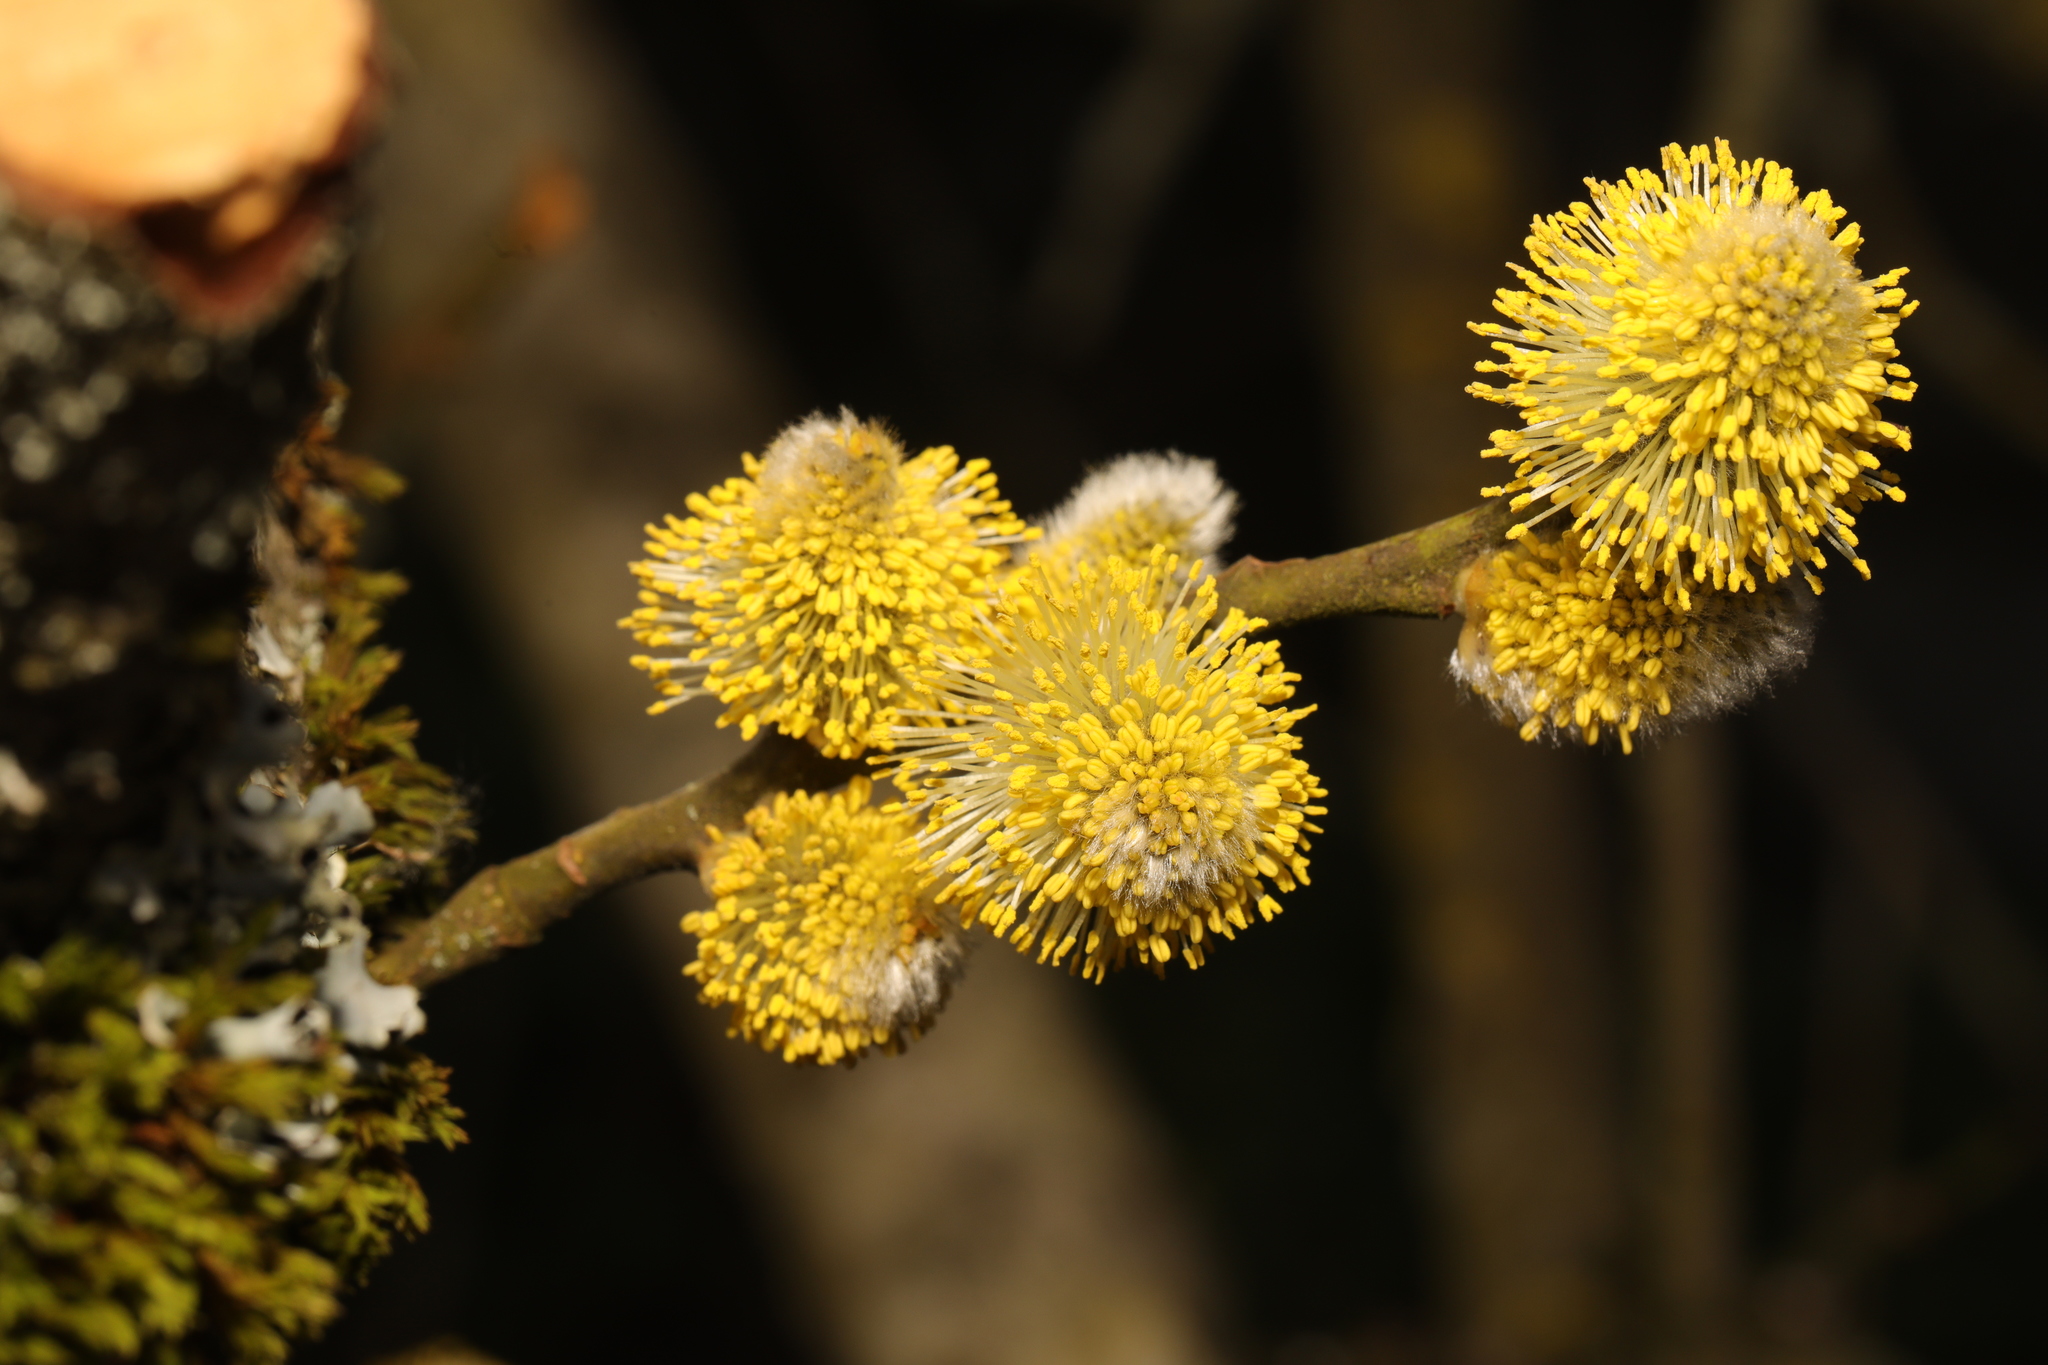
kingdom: Plantae
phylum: Tracheophyta
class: Magnoliopsida
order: Malpighiales
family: Salicaceae
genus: Salix
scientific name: Salix caprea
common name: Goat willow
